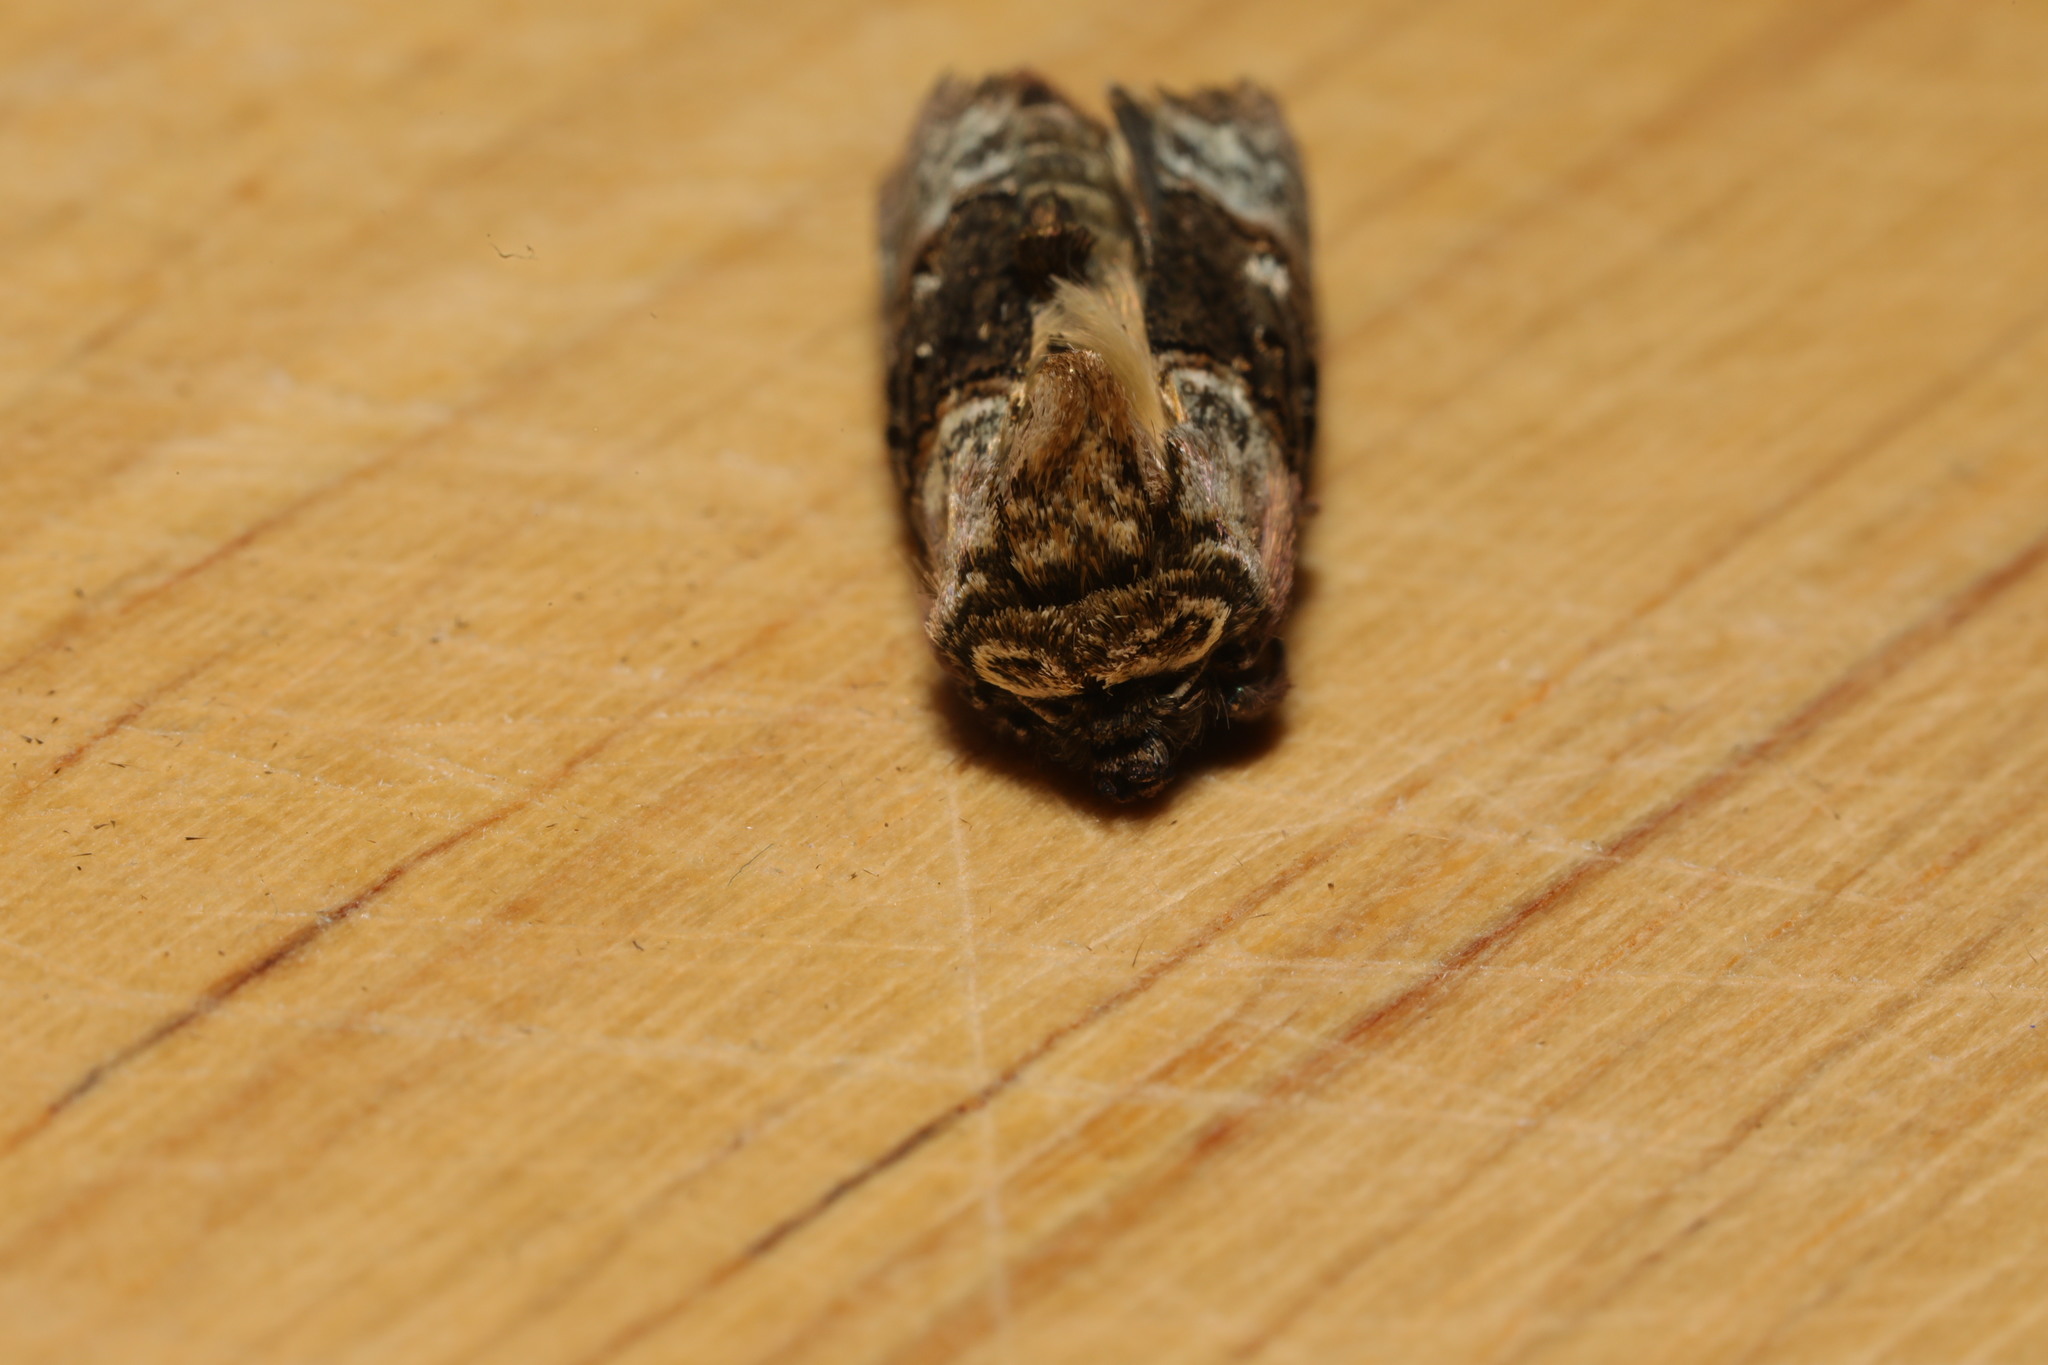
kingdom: Animalia
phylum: Arthropoda
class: Insecta
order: Lepidoptera
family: Noctuidae
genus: Abrostola
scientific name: Abrostola tripartita
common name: Spectacle
